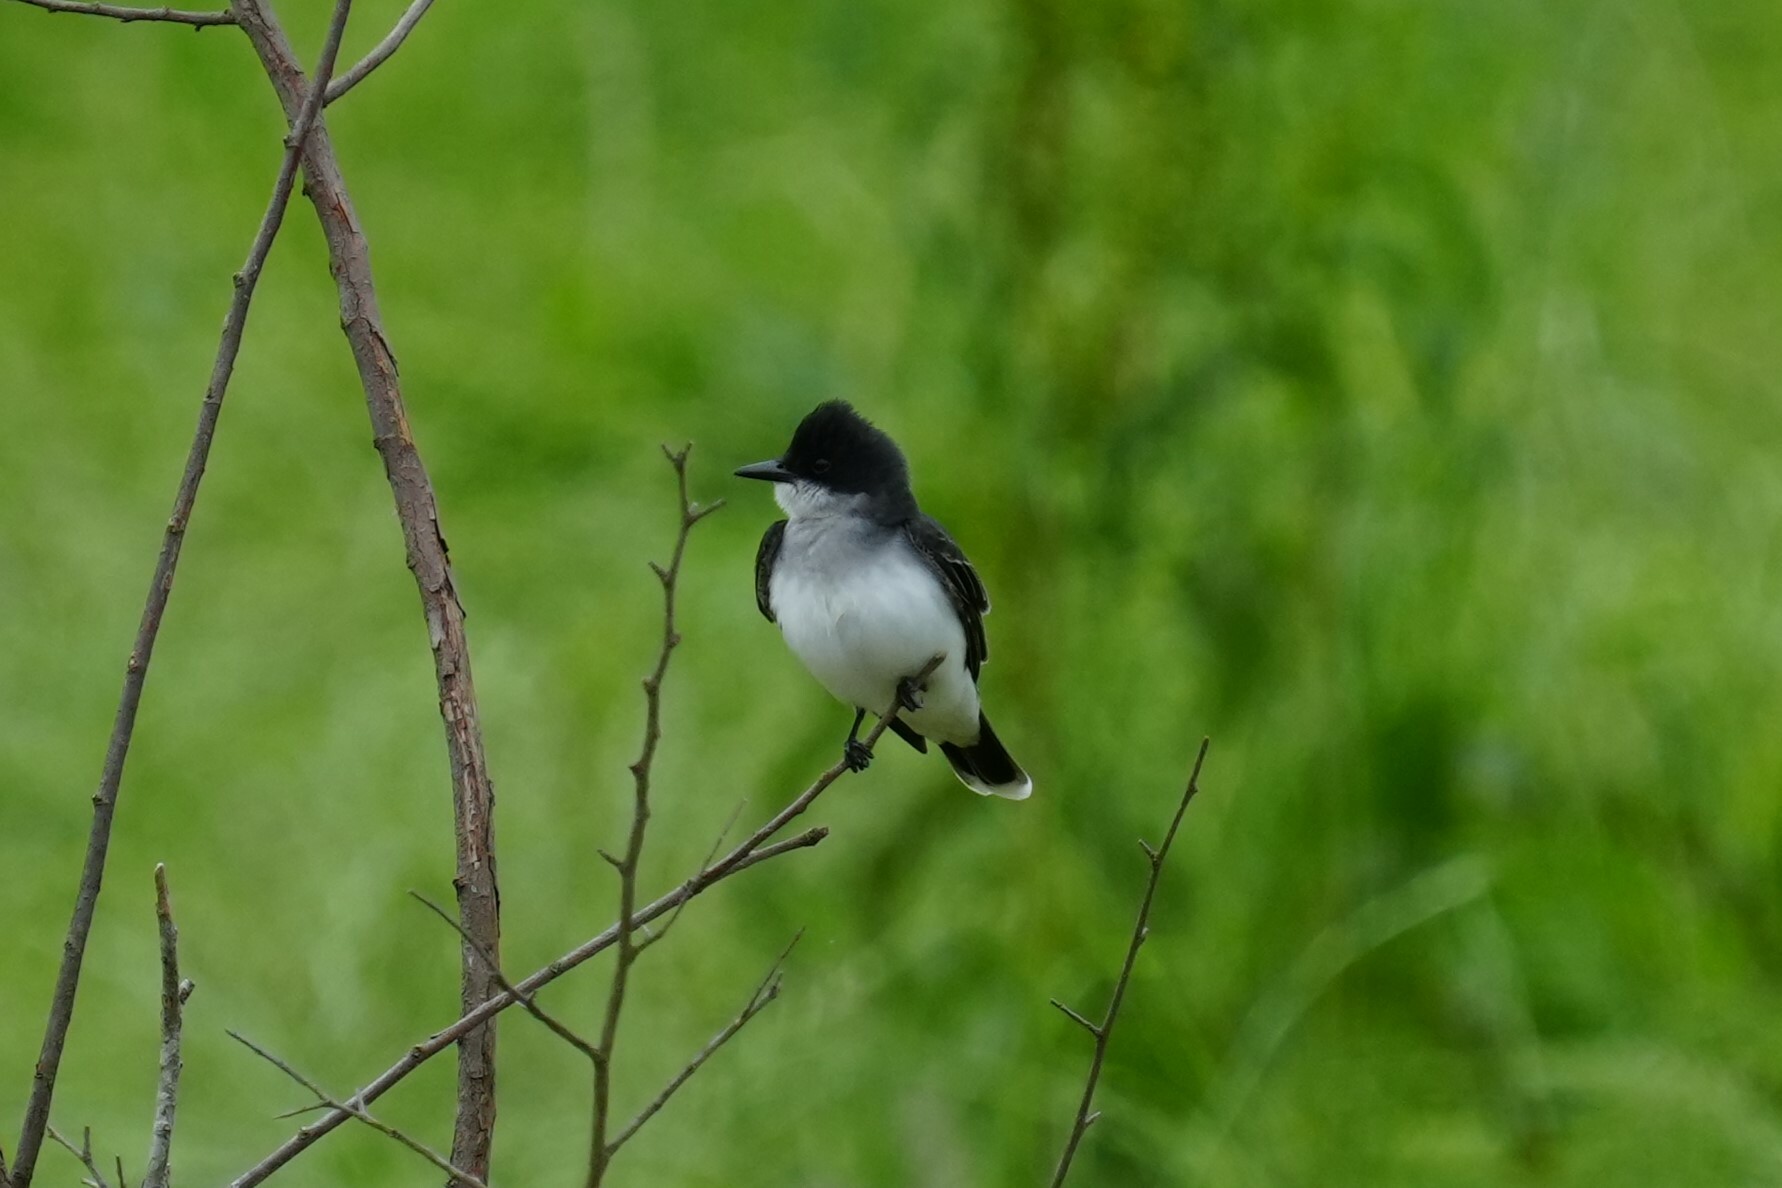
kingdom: Animalia
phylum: Chordata
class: Aves
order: Passeriformes
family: Tyrannidae
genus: Tyrannus
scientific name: Tyrannus tyrannus
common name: Eastern kingbird
